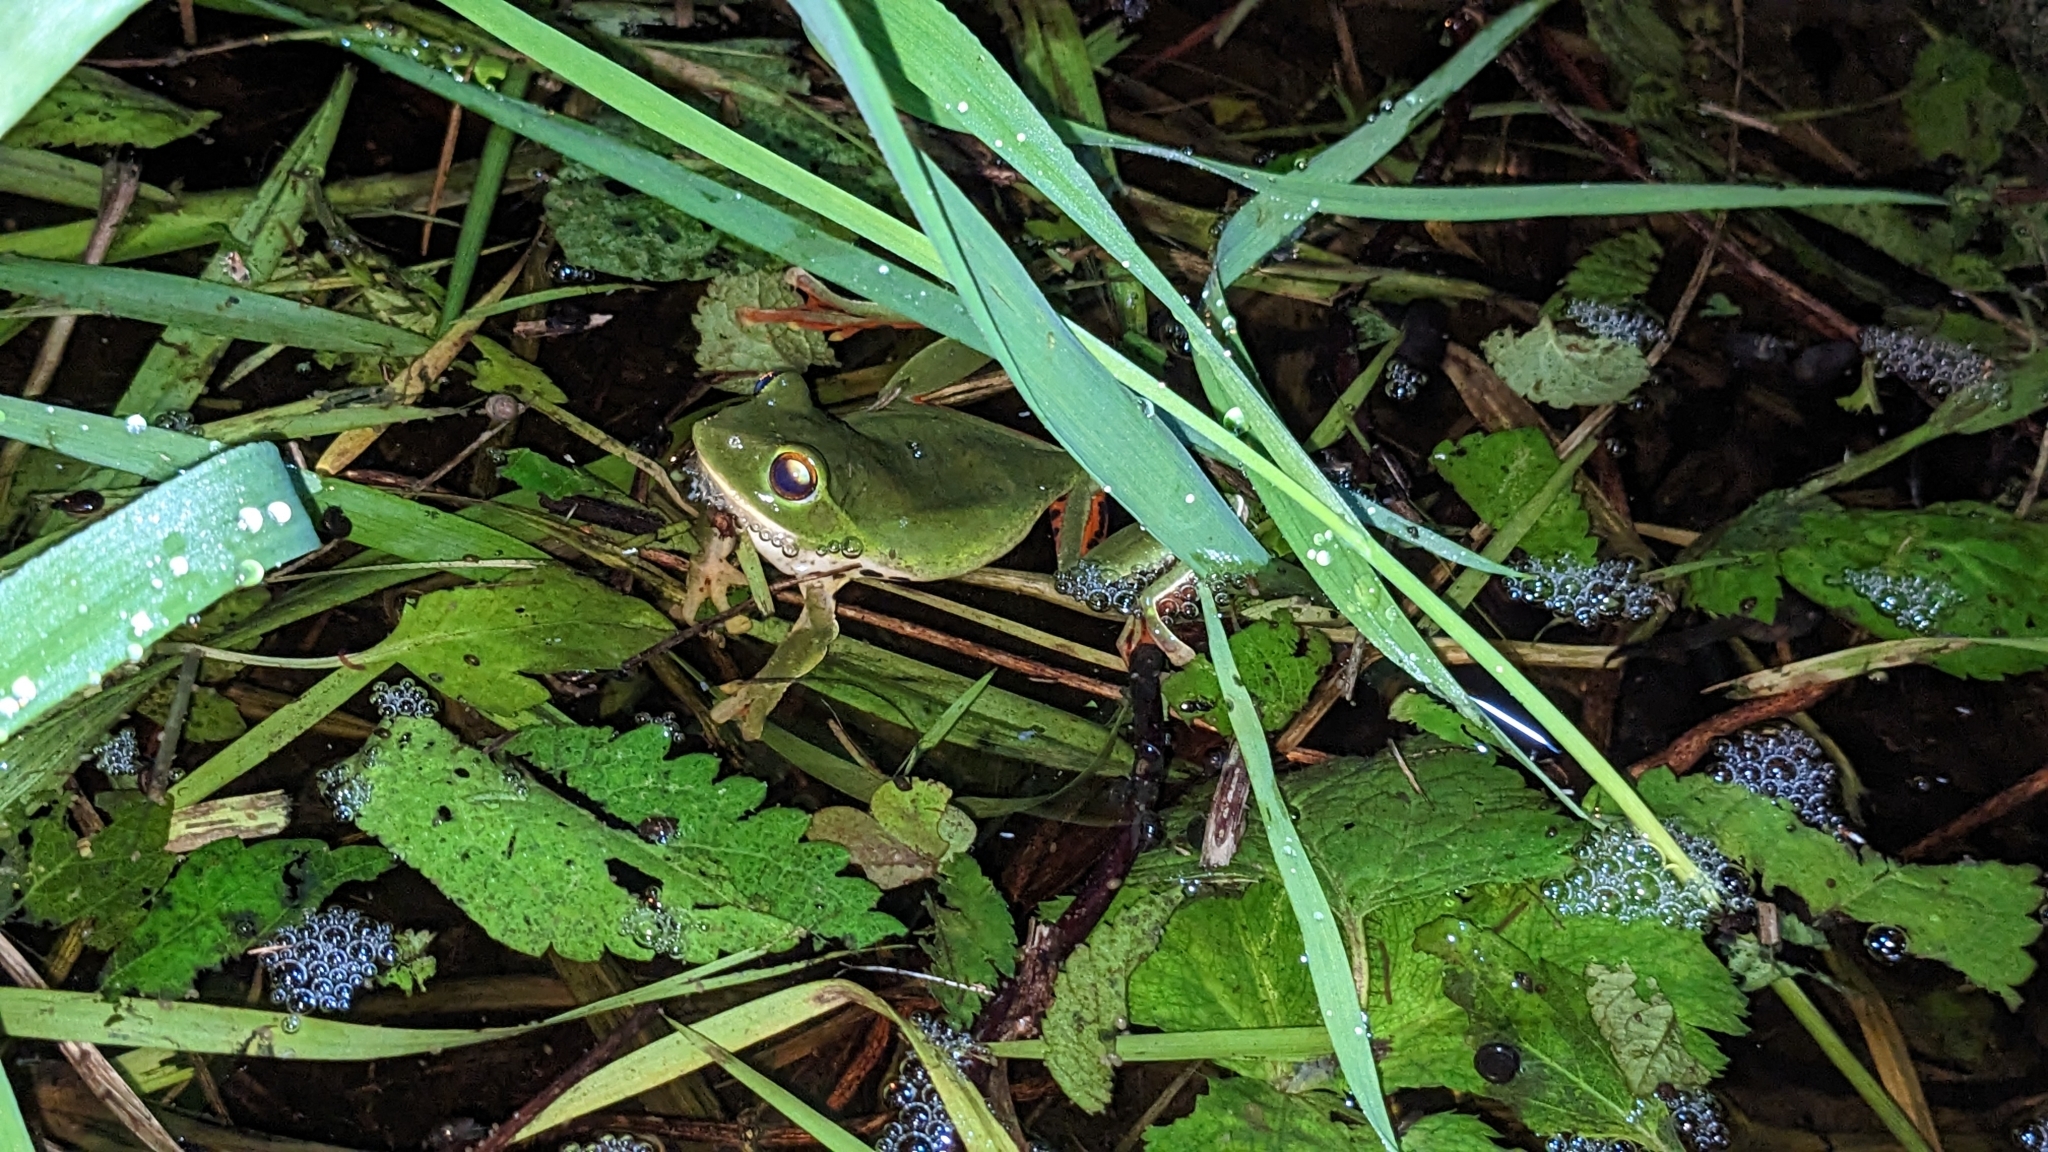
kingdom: Animalia
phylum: Chordata
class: Amphibia
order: Anura
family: Rhacophoridae
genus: Zhangixalus
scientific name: Zhangixalus moltrechti
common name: Moltrecht's treefrog
